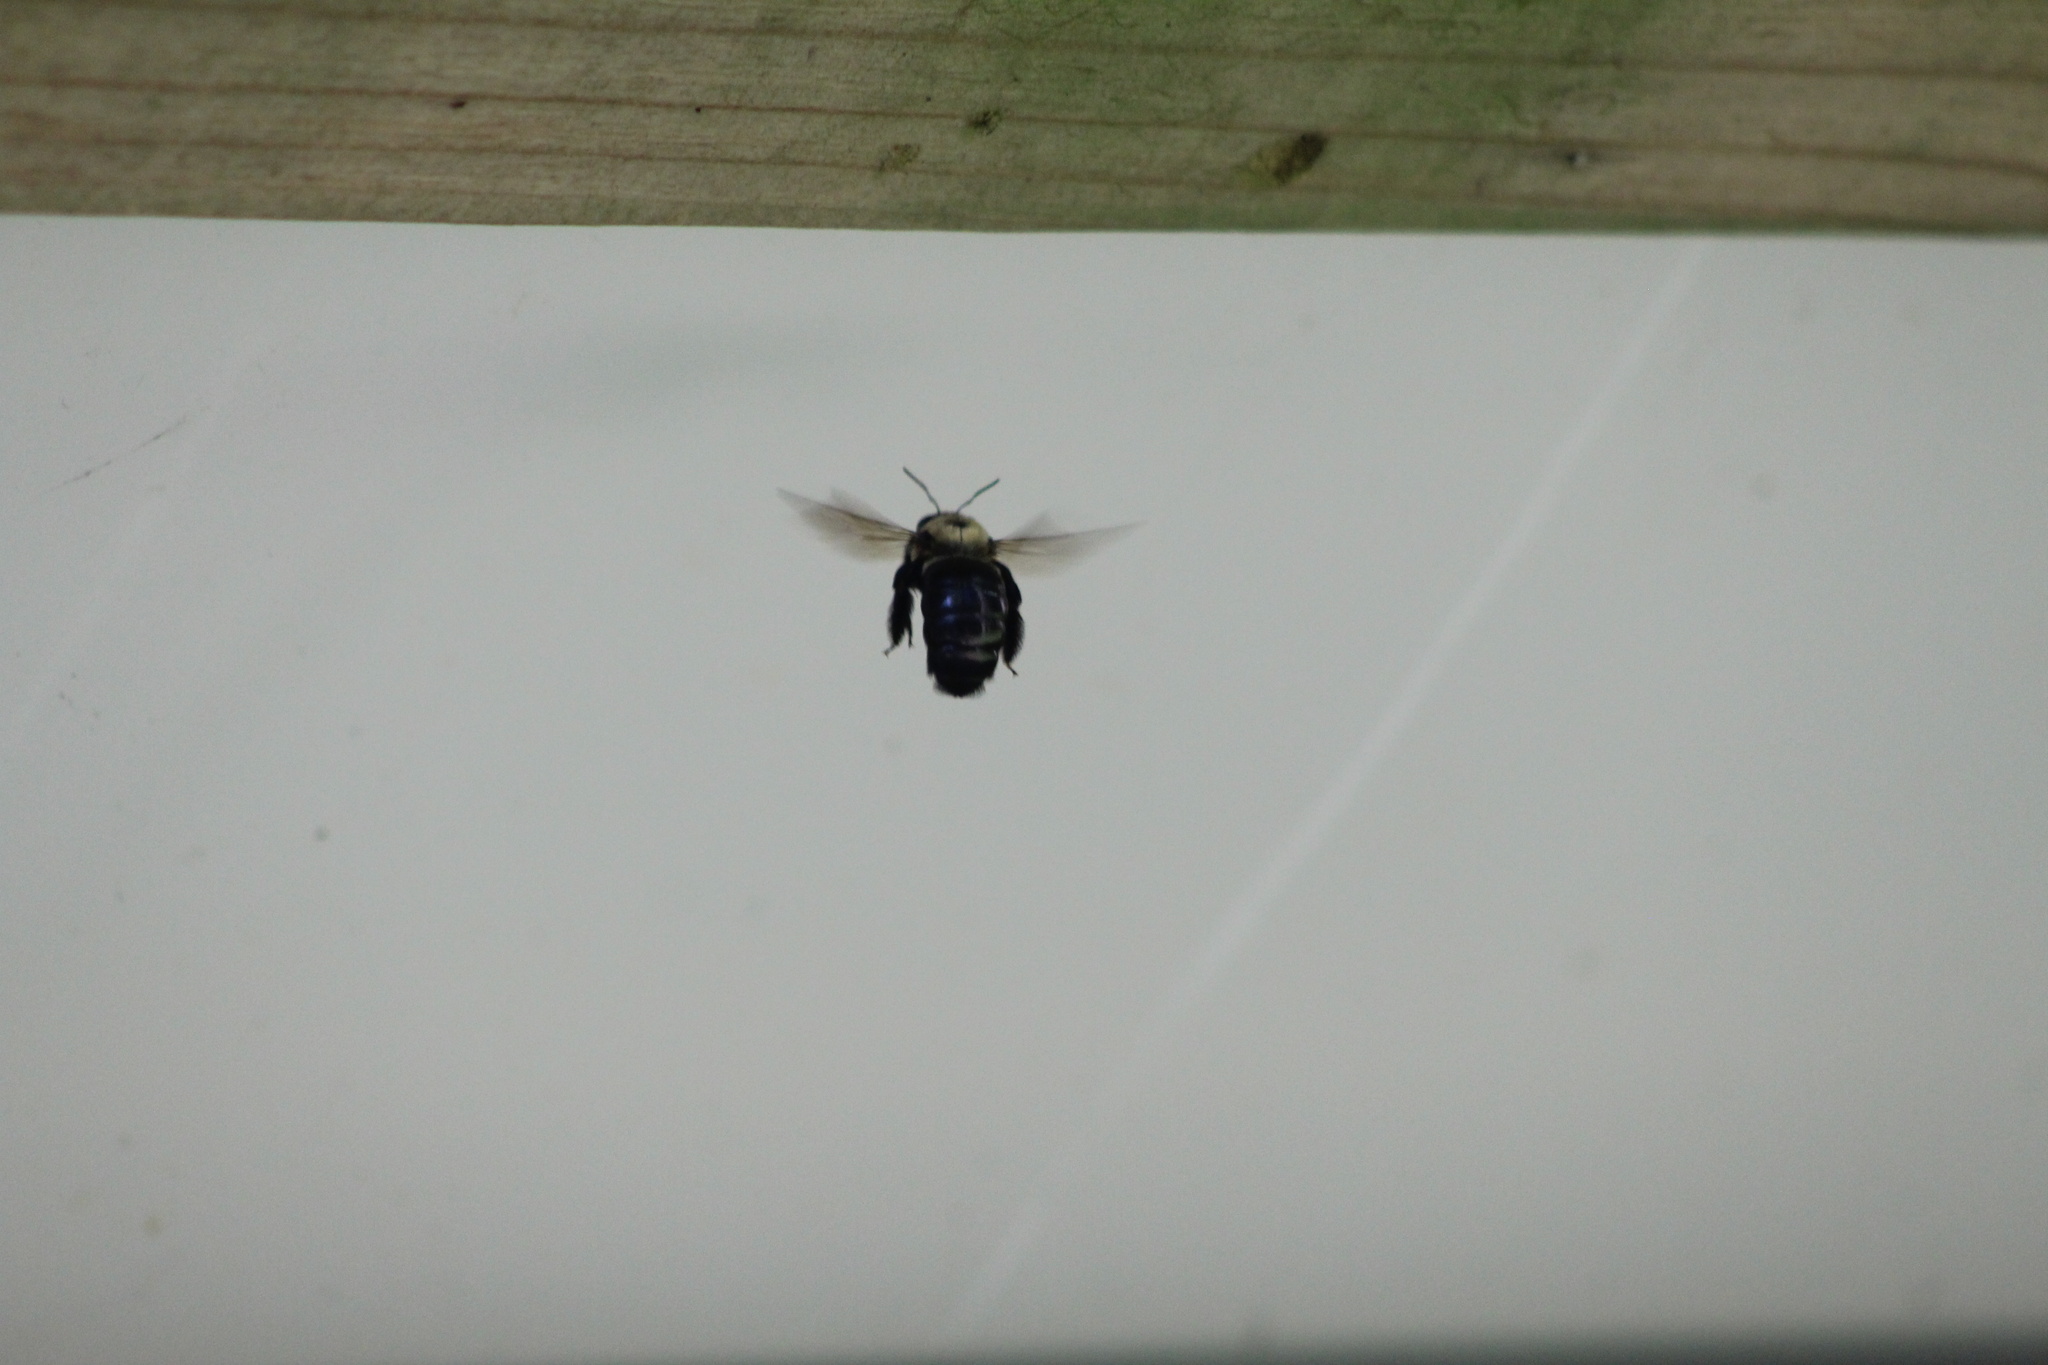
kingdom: Animalia
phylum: Arthropoda
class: Insecta
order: Hymenoptera
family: Apidae
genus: Xylocopa
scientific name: Xylocopa virginica
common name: Carpenter bee
